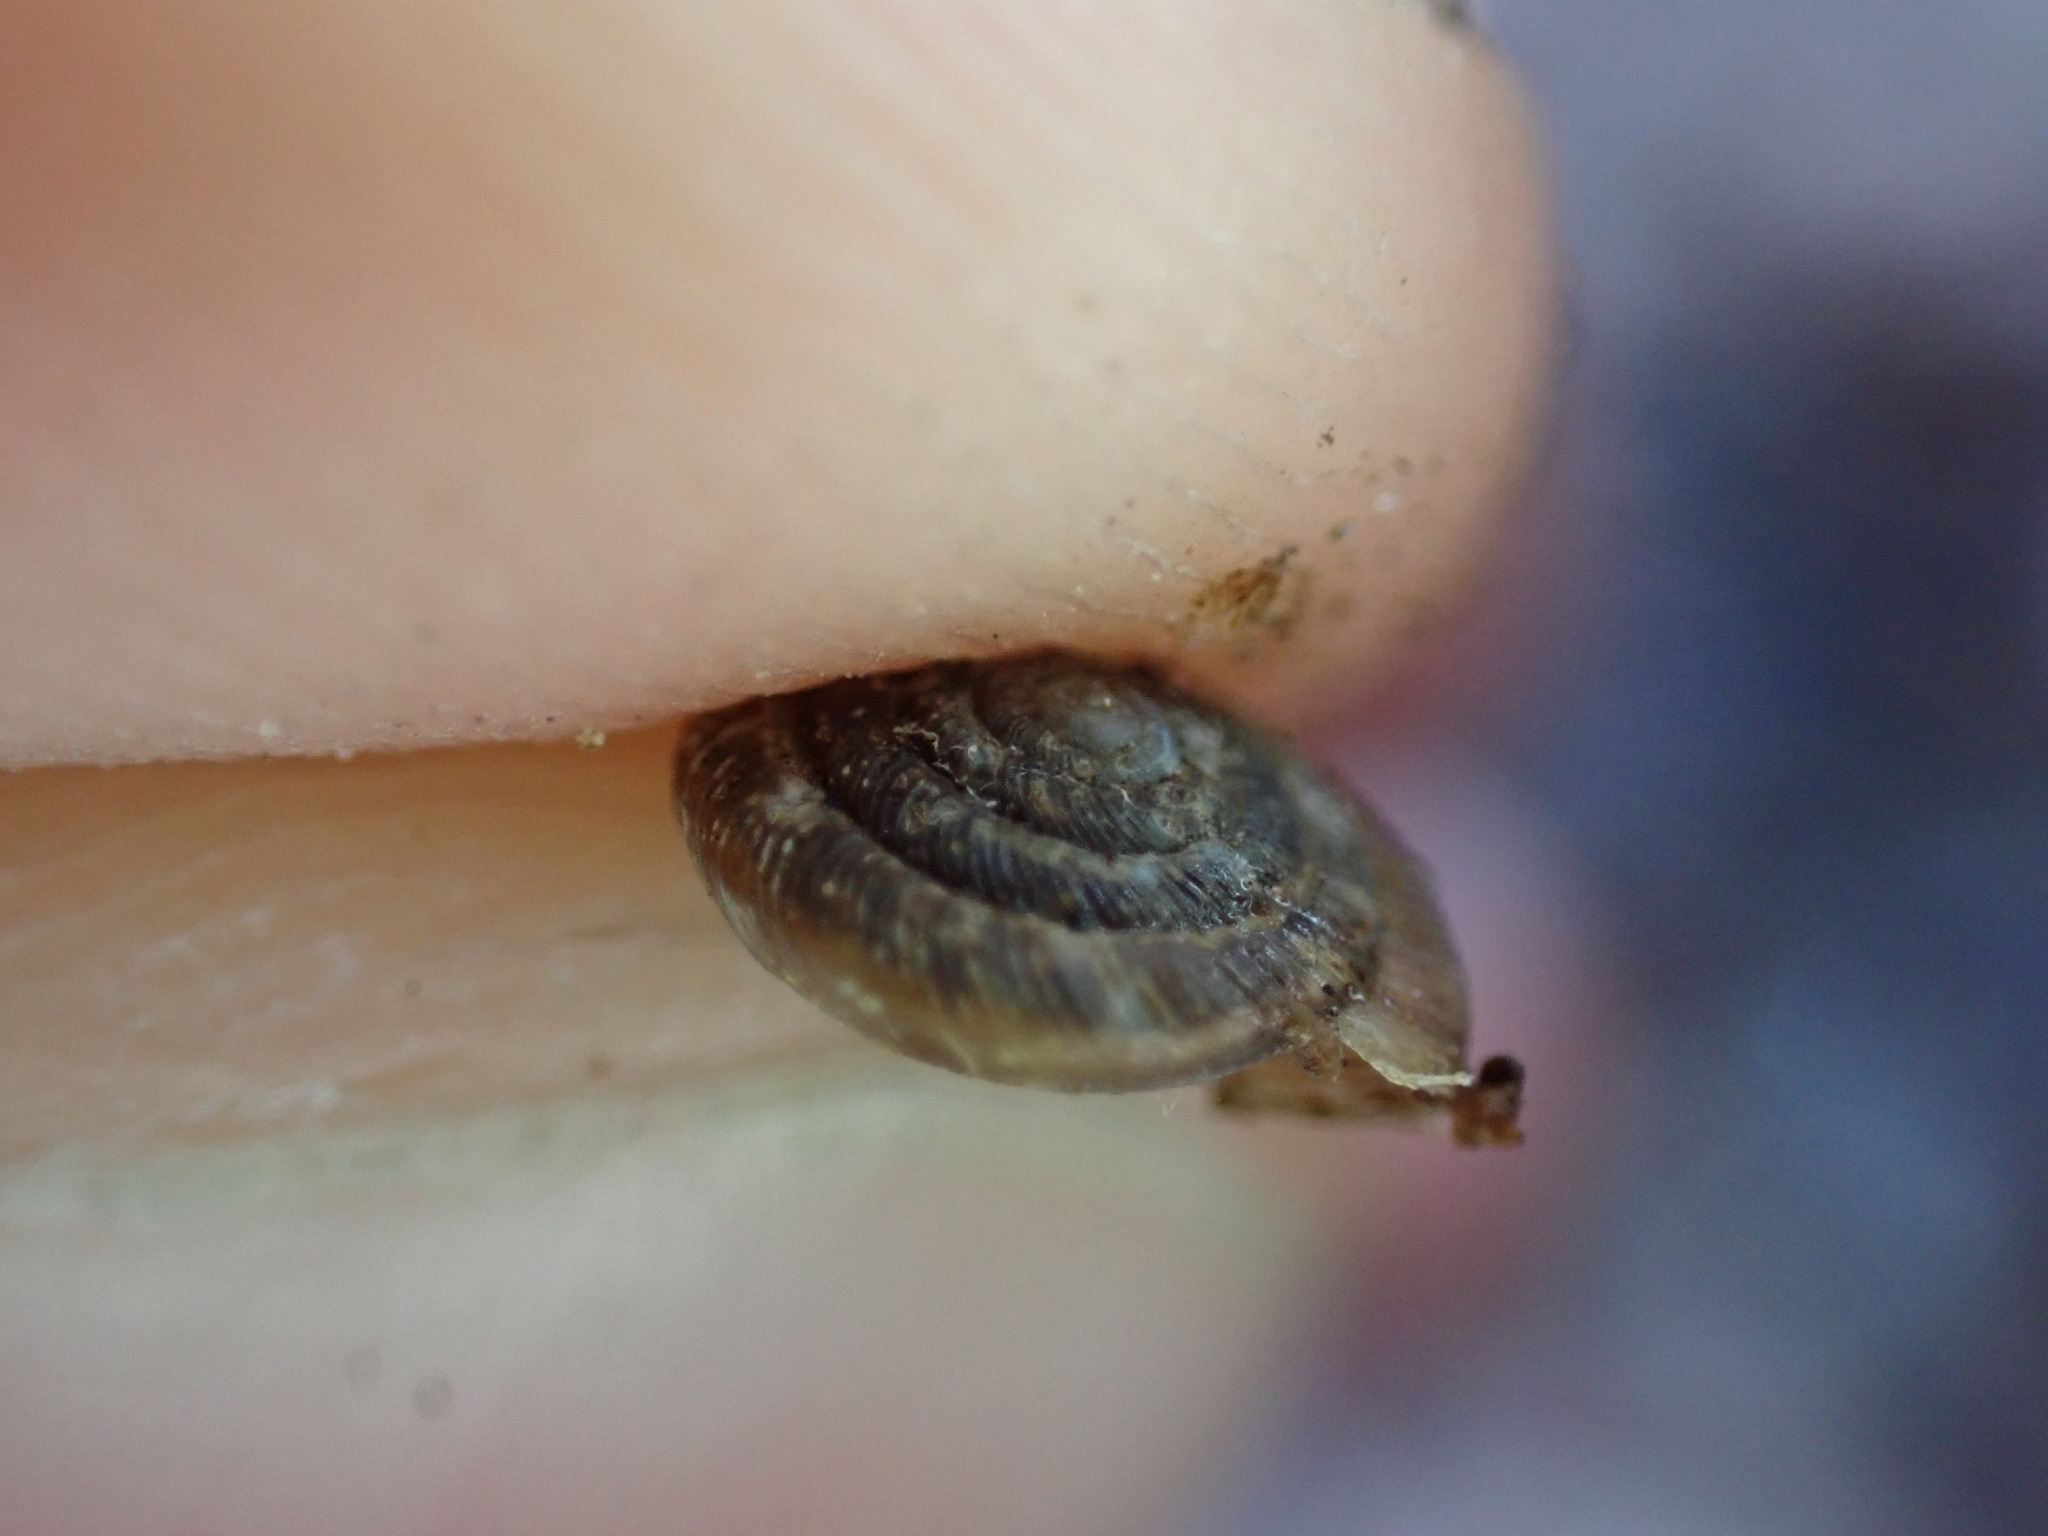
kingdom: Animalia
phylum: Mollusca
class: Gastropoda
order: Stylommatophora
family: Discidae
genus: Discus
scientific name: Discus rotundatus
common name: Rounded snail
